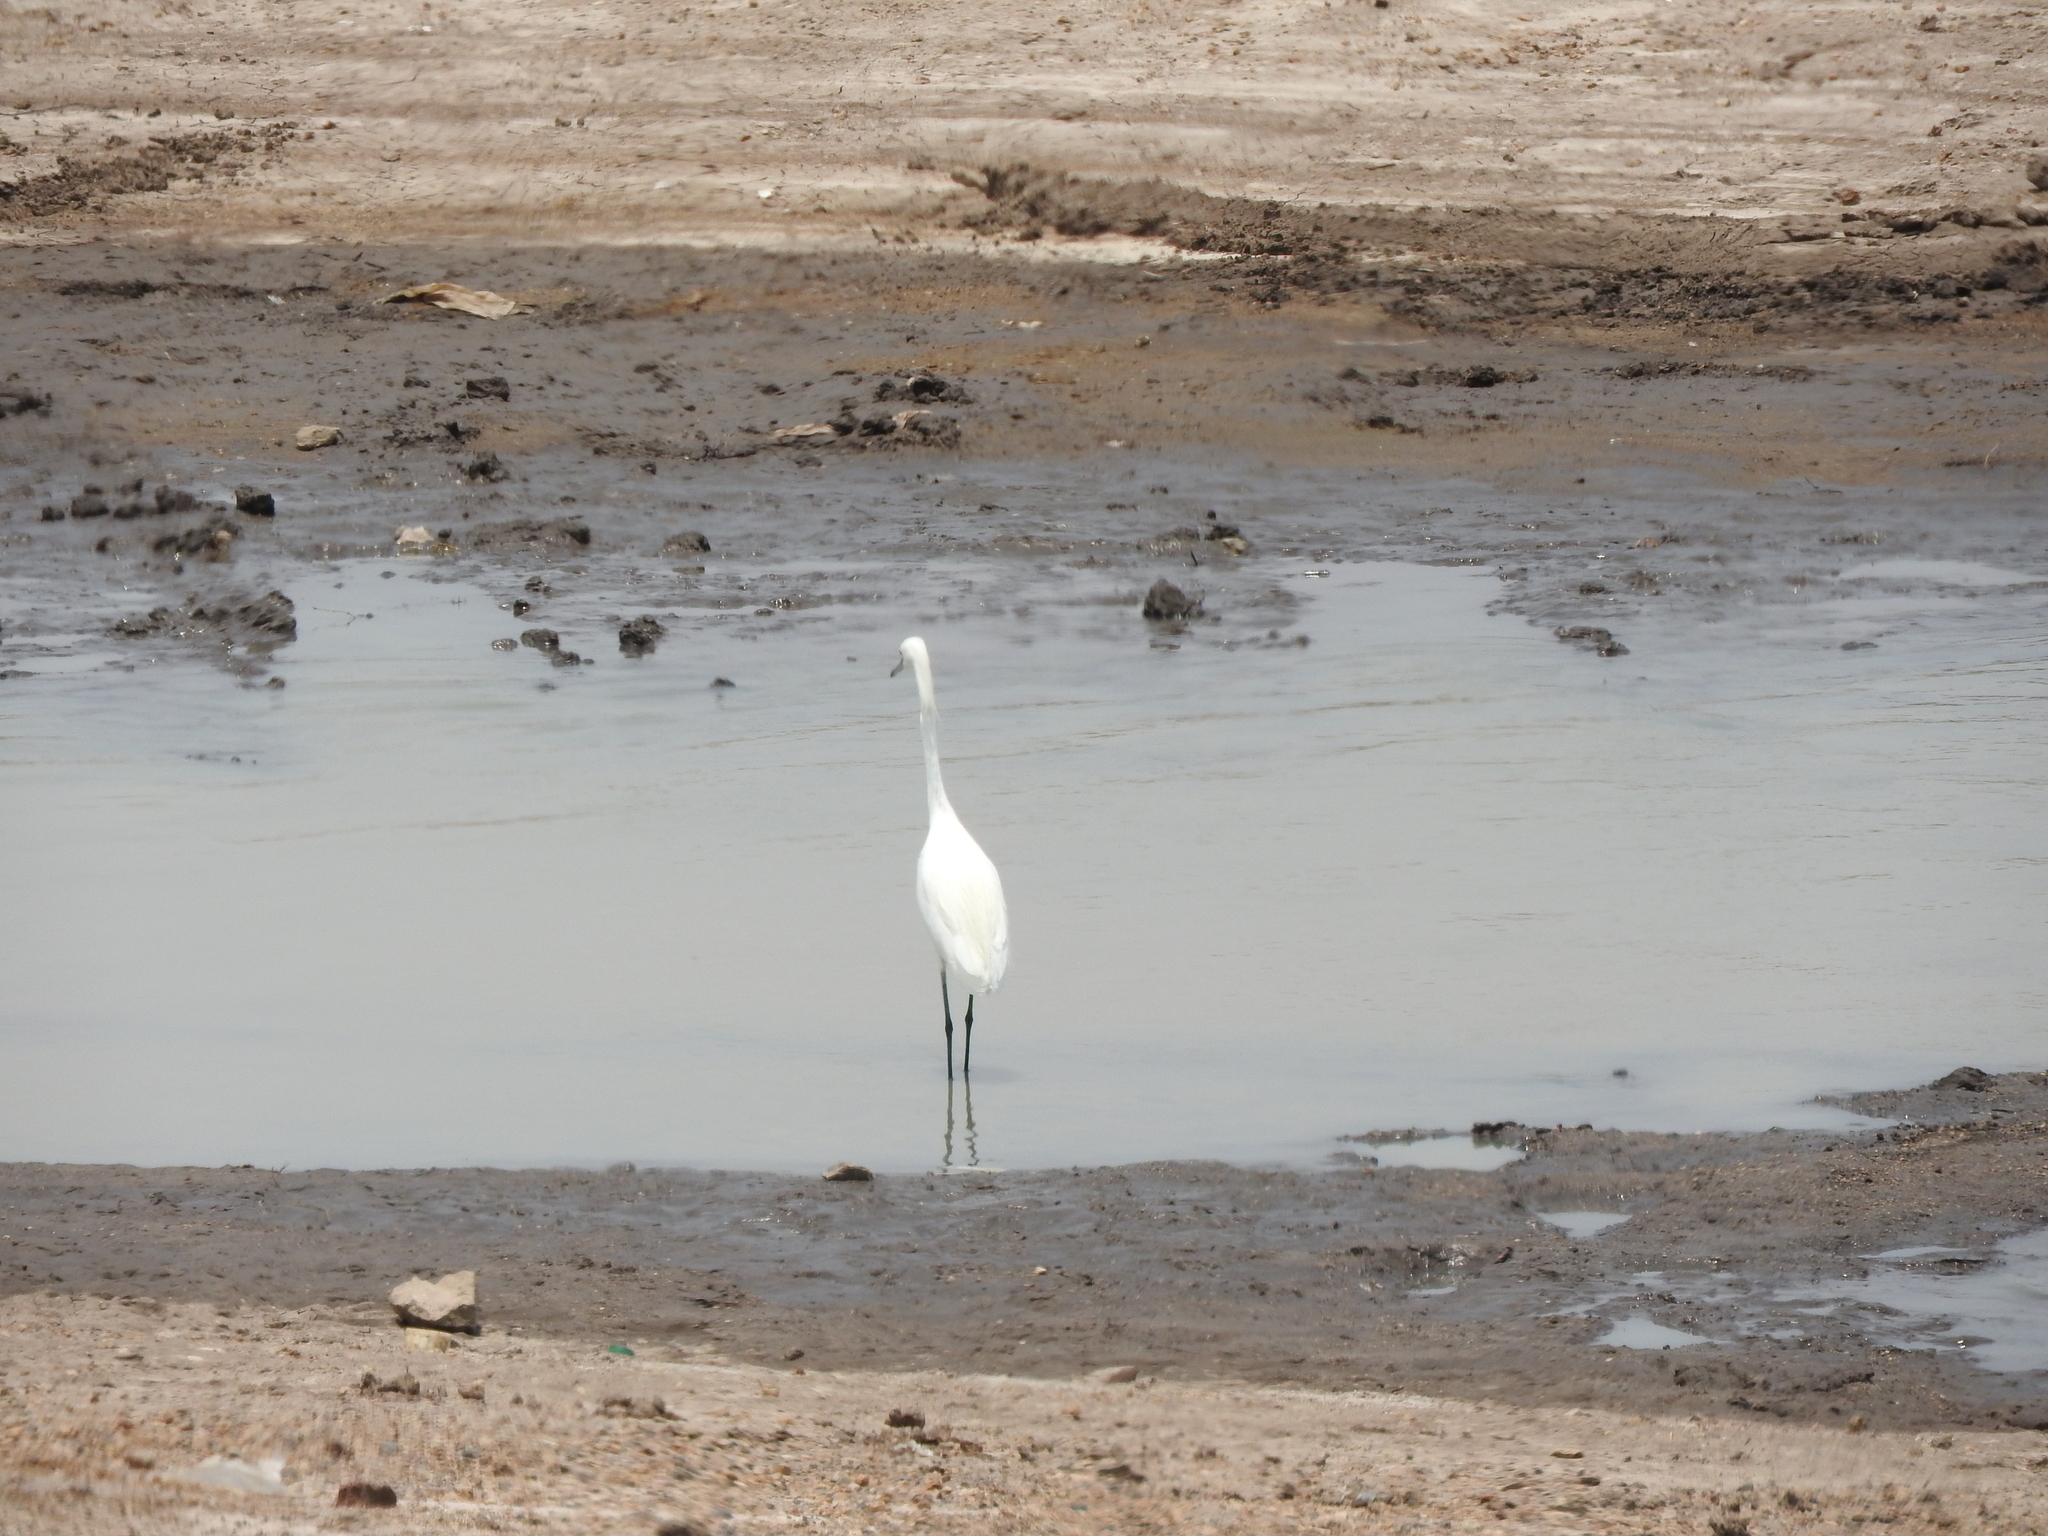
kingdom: Animalia
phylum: Chordata
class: Aves
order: Pelecaniformes
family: Ardeidae
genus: Egretta
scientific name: Egretta thula
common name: Snowy egret
